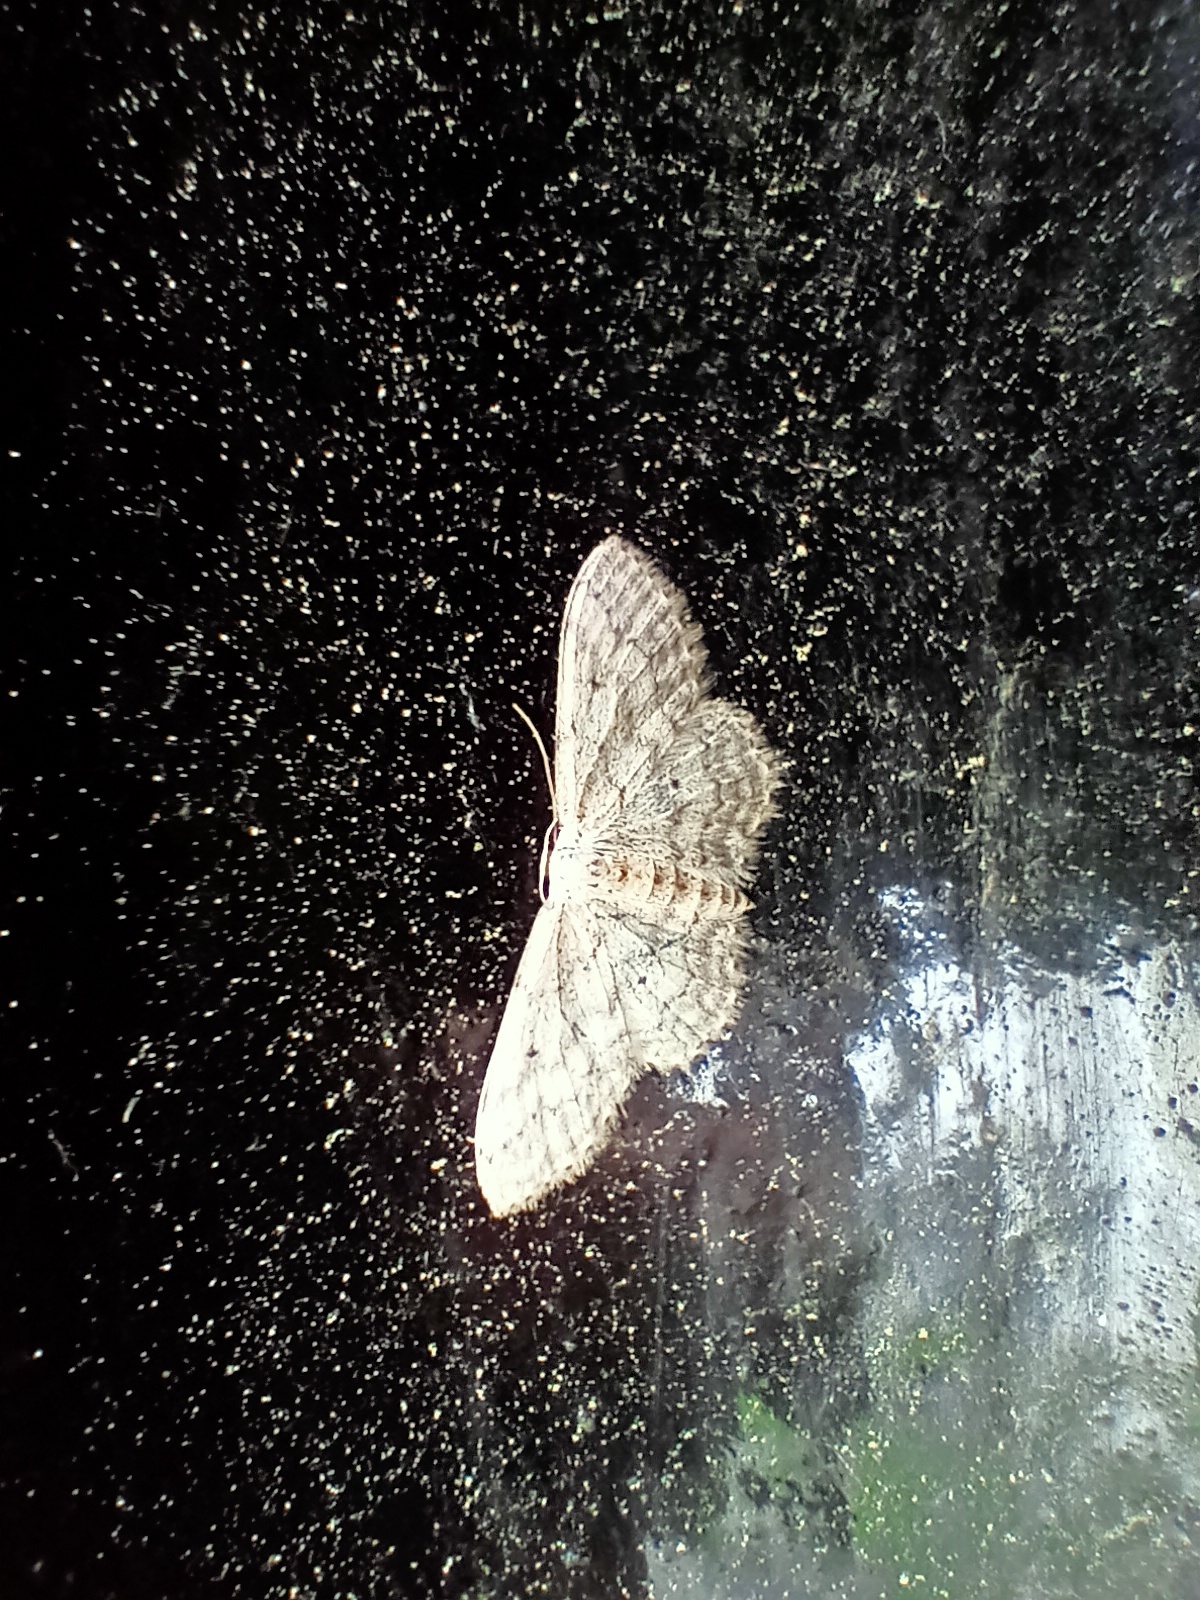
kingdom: Animalia
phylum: Arthropoda
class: Insecta
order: Lepidoptera
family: Geometridae
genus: Idaea
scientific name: Idaea seriata
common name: Small dusty wave
